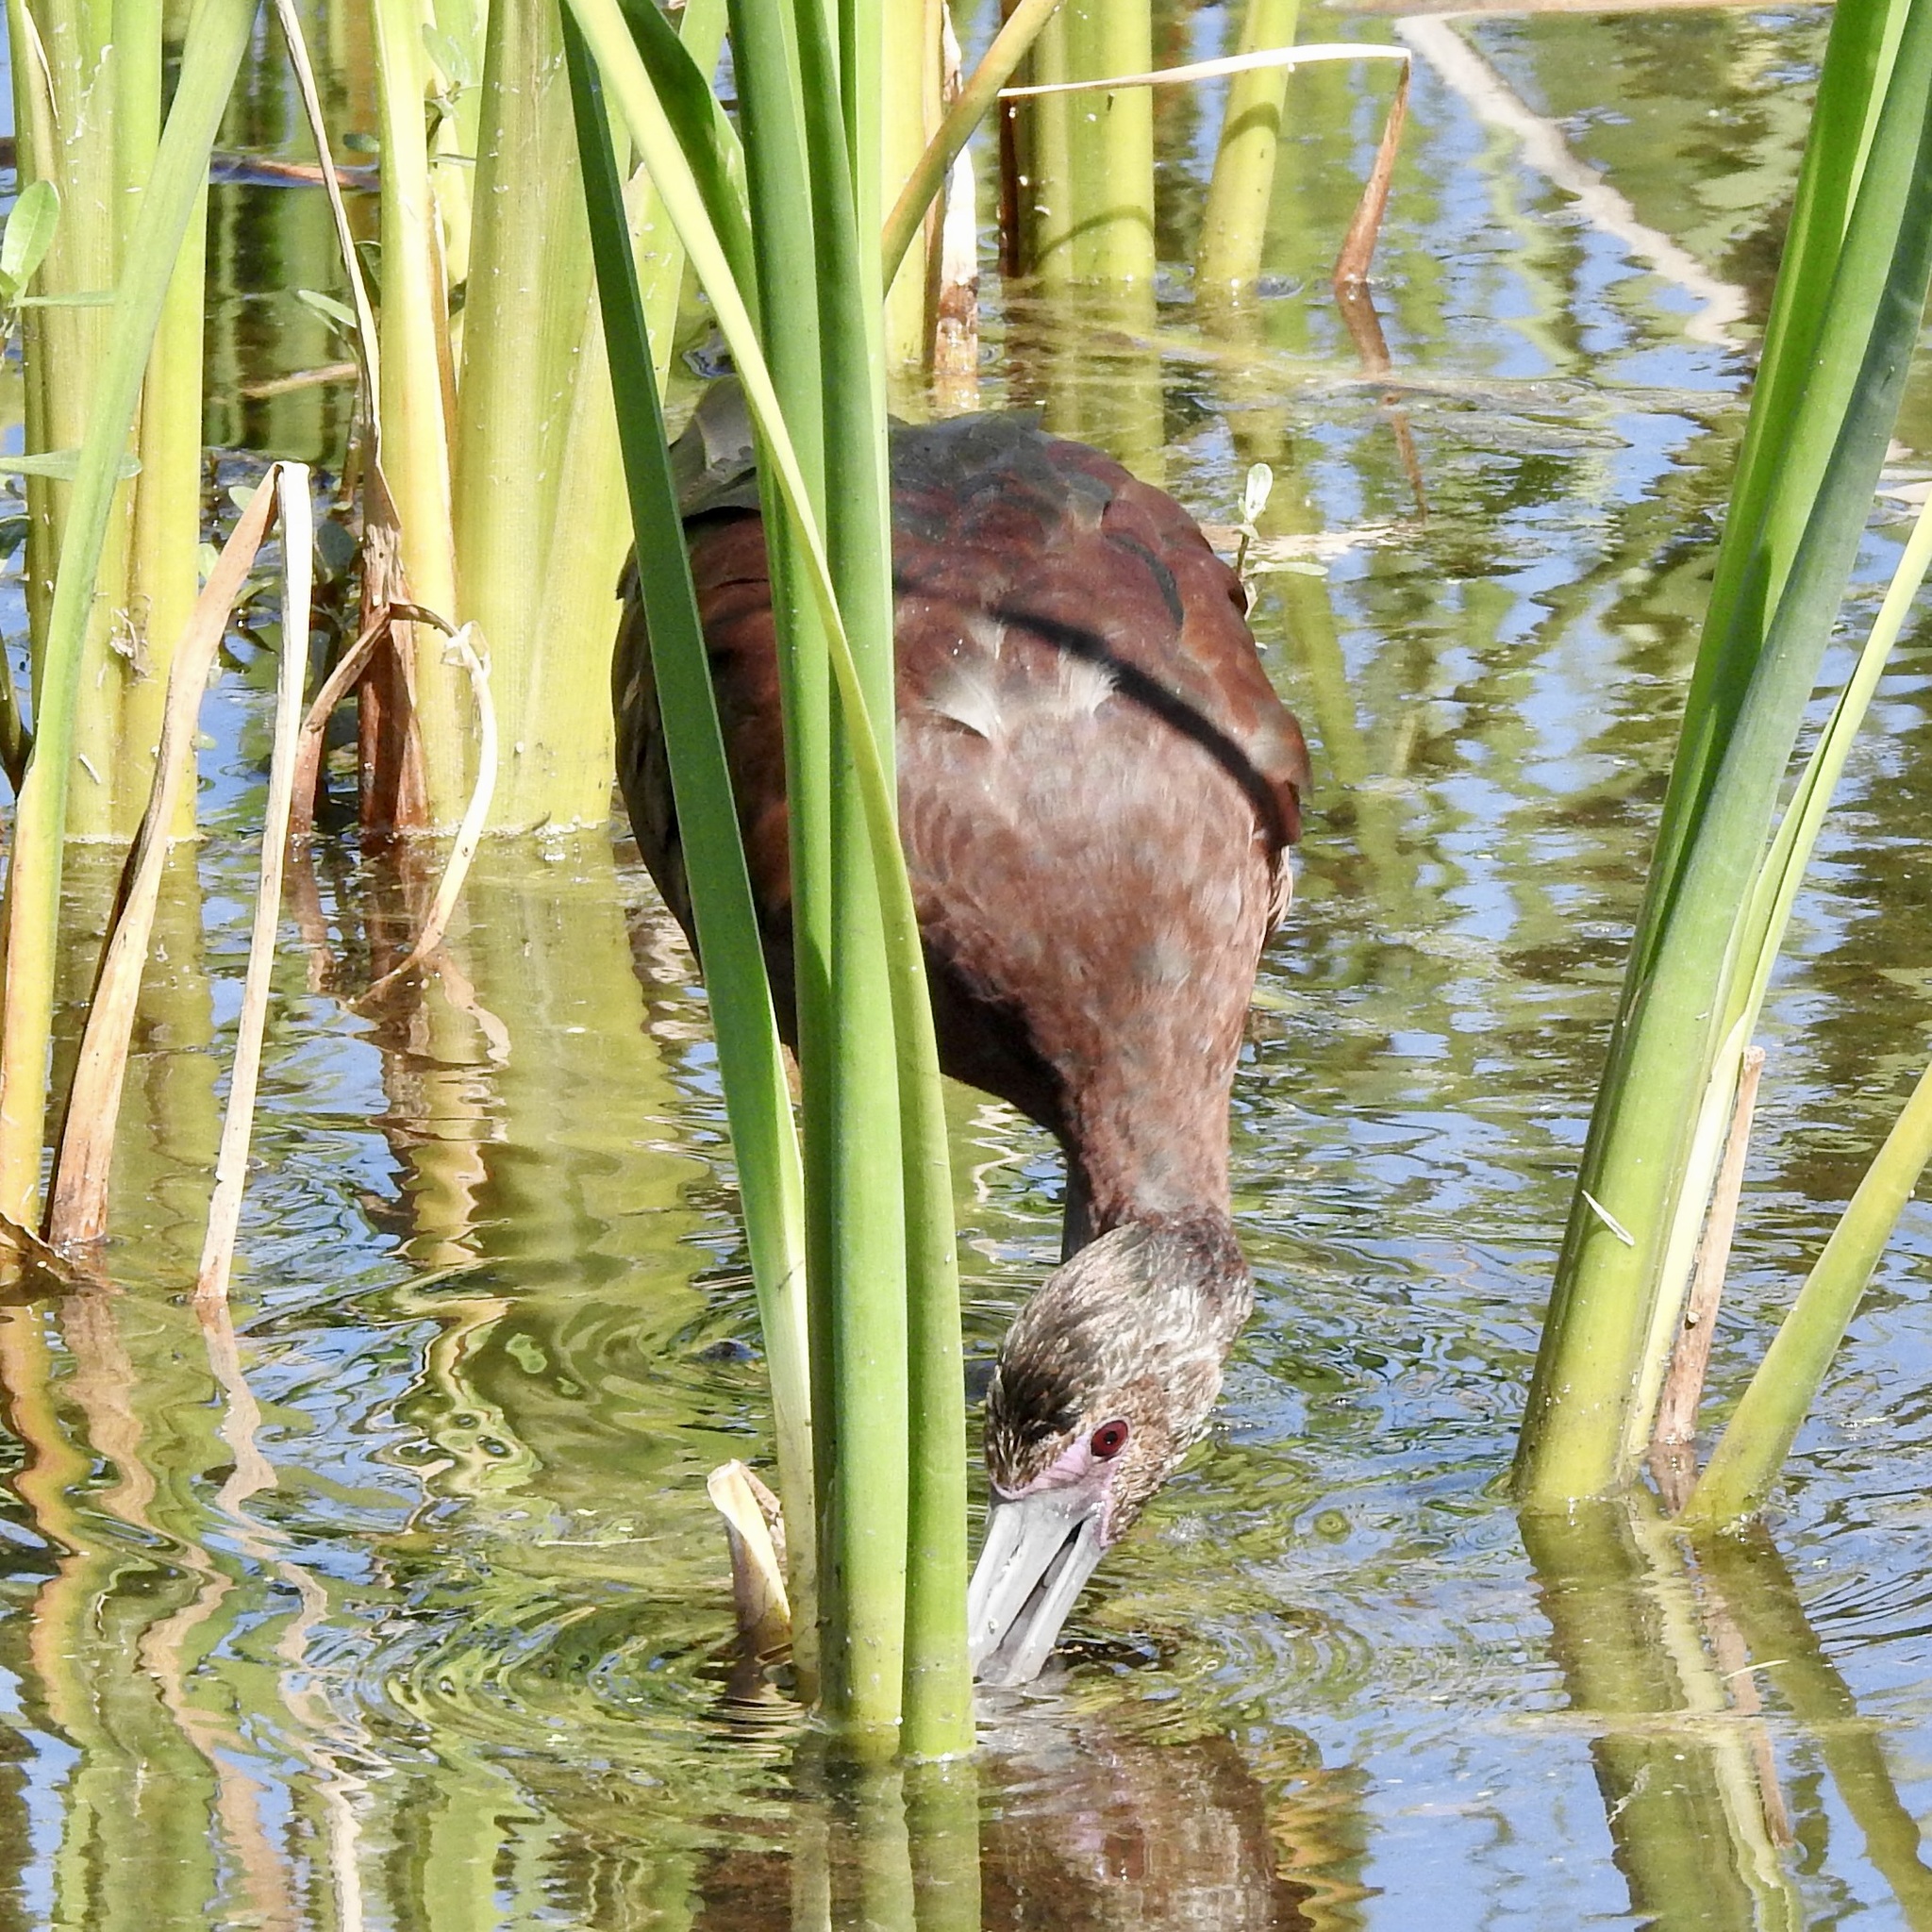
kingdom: Animalia
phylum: Chordata
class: Aves
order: Pelecaniformes
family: Threskiornithidae
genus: Plegadis
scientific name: Plegadis chihi
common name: White-faced ibis
